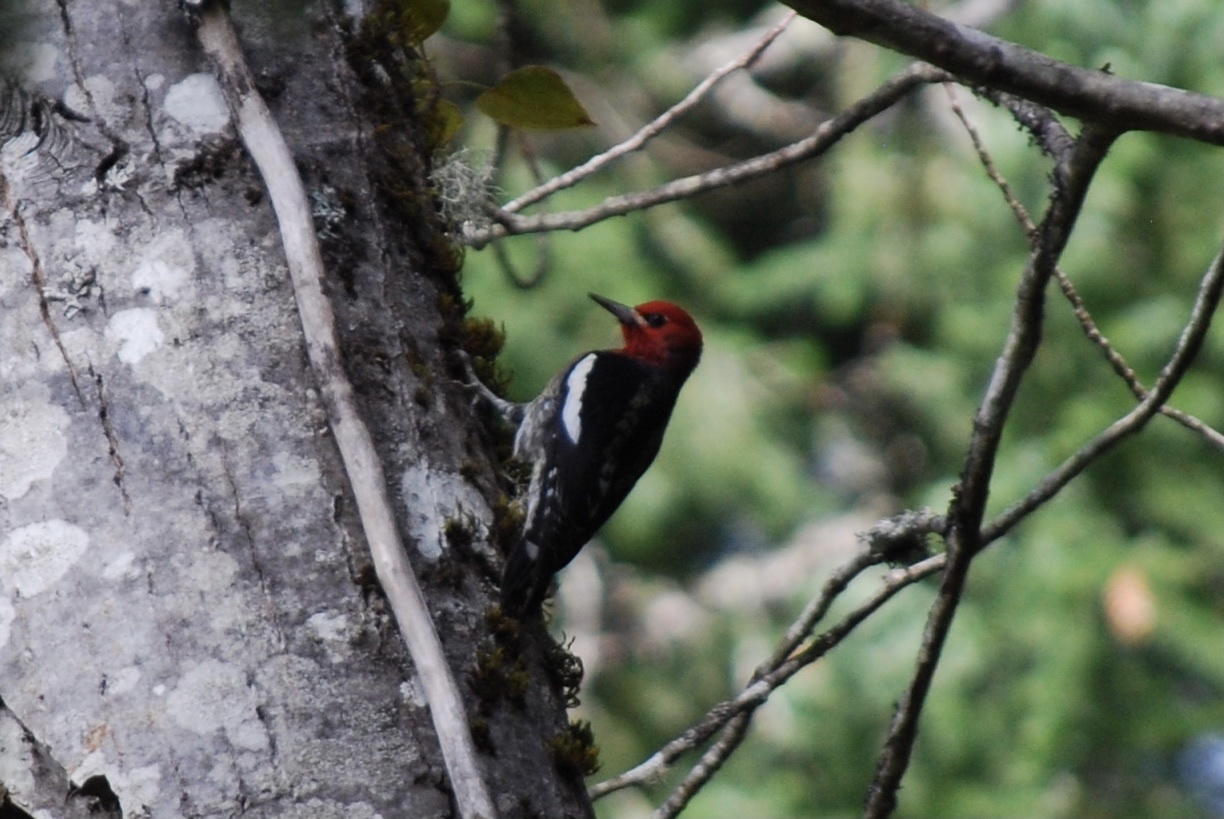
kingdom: Animalia
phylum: Chordata
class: Aves
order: Piciformes
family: Picidae
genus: Sphyrapicus
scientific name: Sphyrapicus ruber
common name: Red-breasted sapsucker
